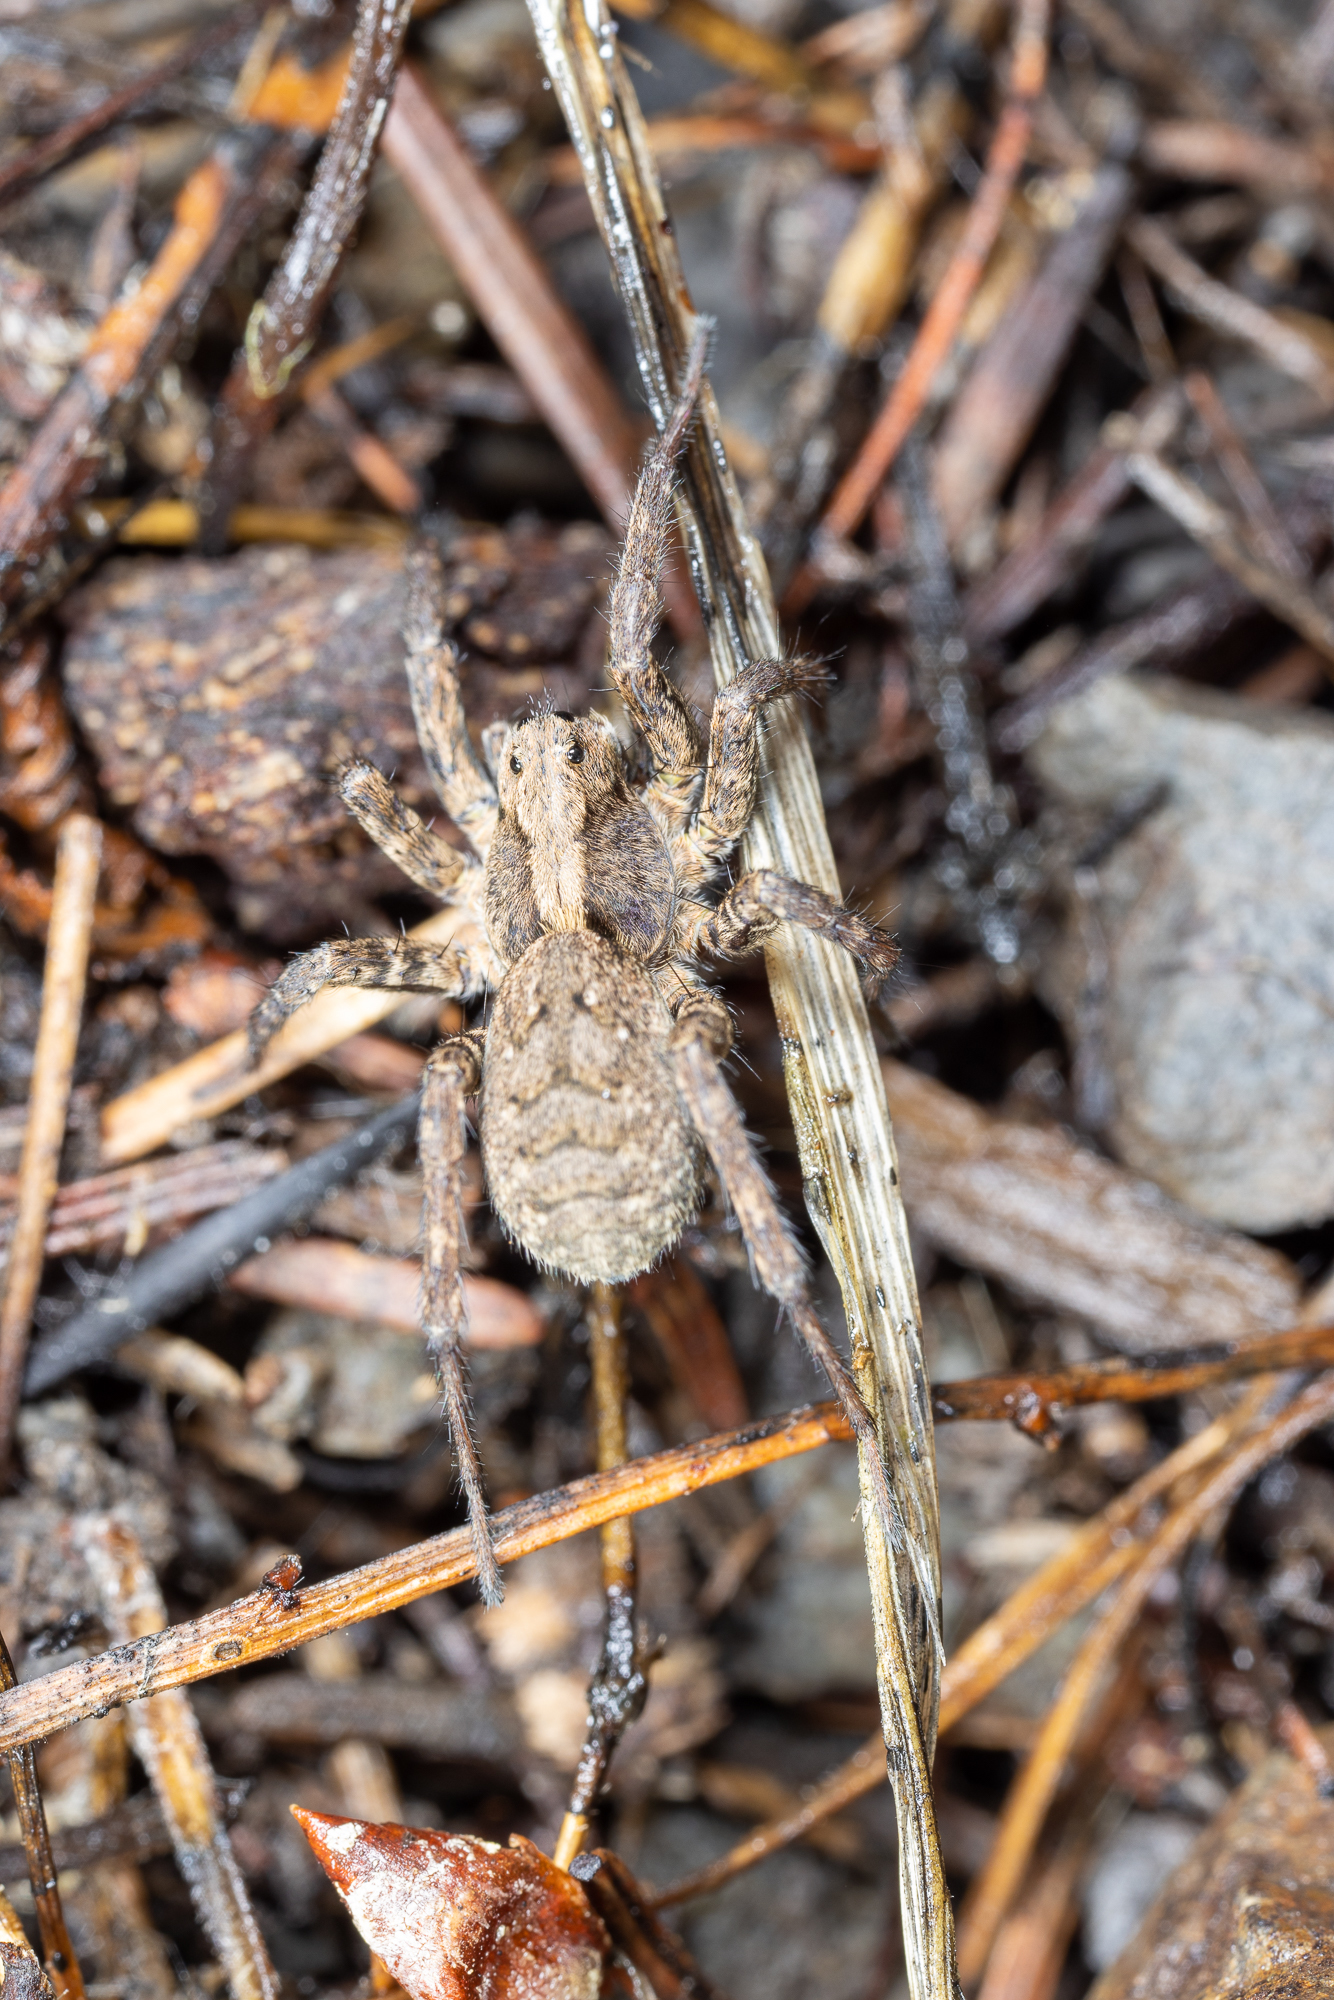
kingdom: Animalia
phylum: Arthropoda
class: Arachnida
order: Araneae
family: Lycosidae
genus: Alopecosa
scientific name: Alopecosa kochi
